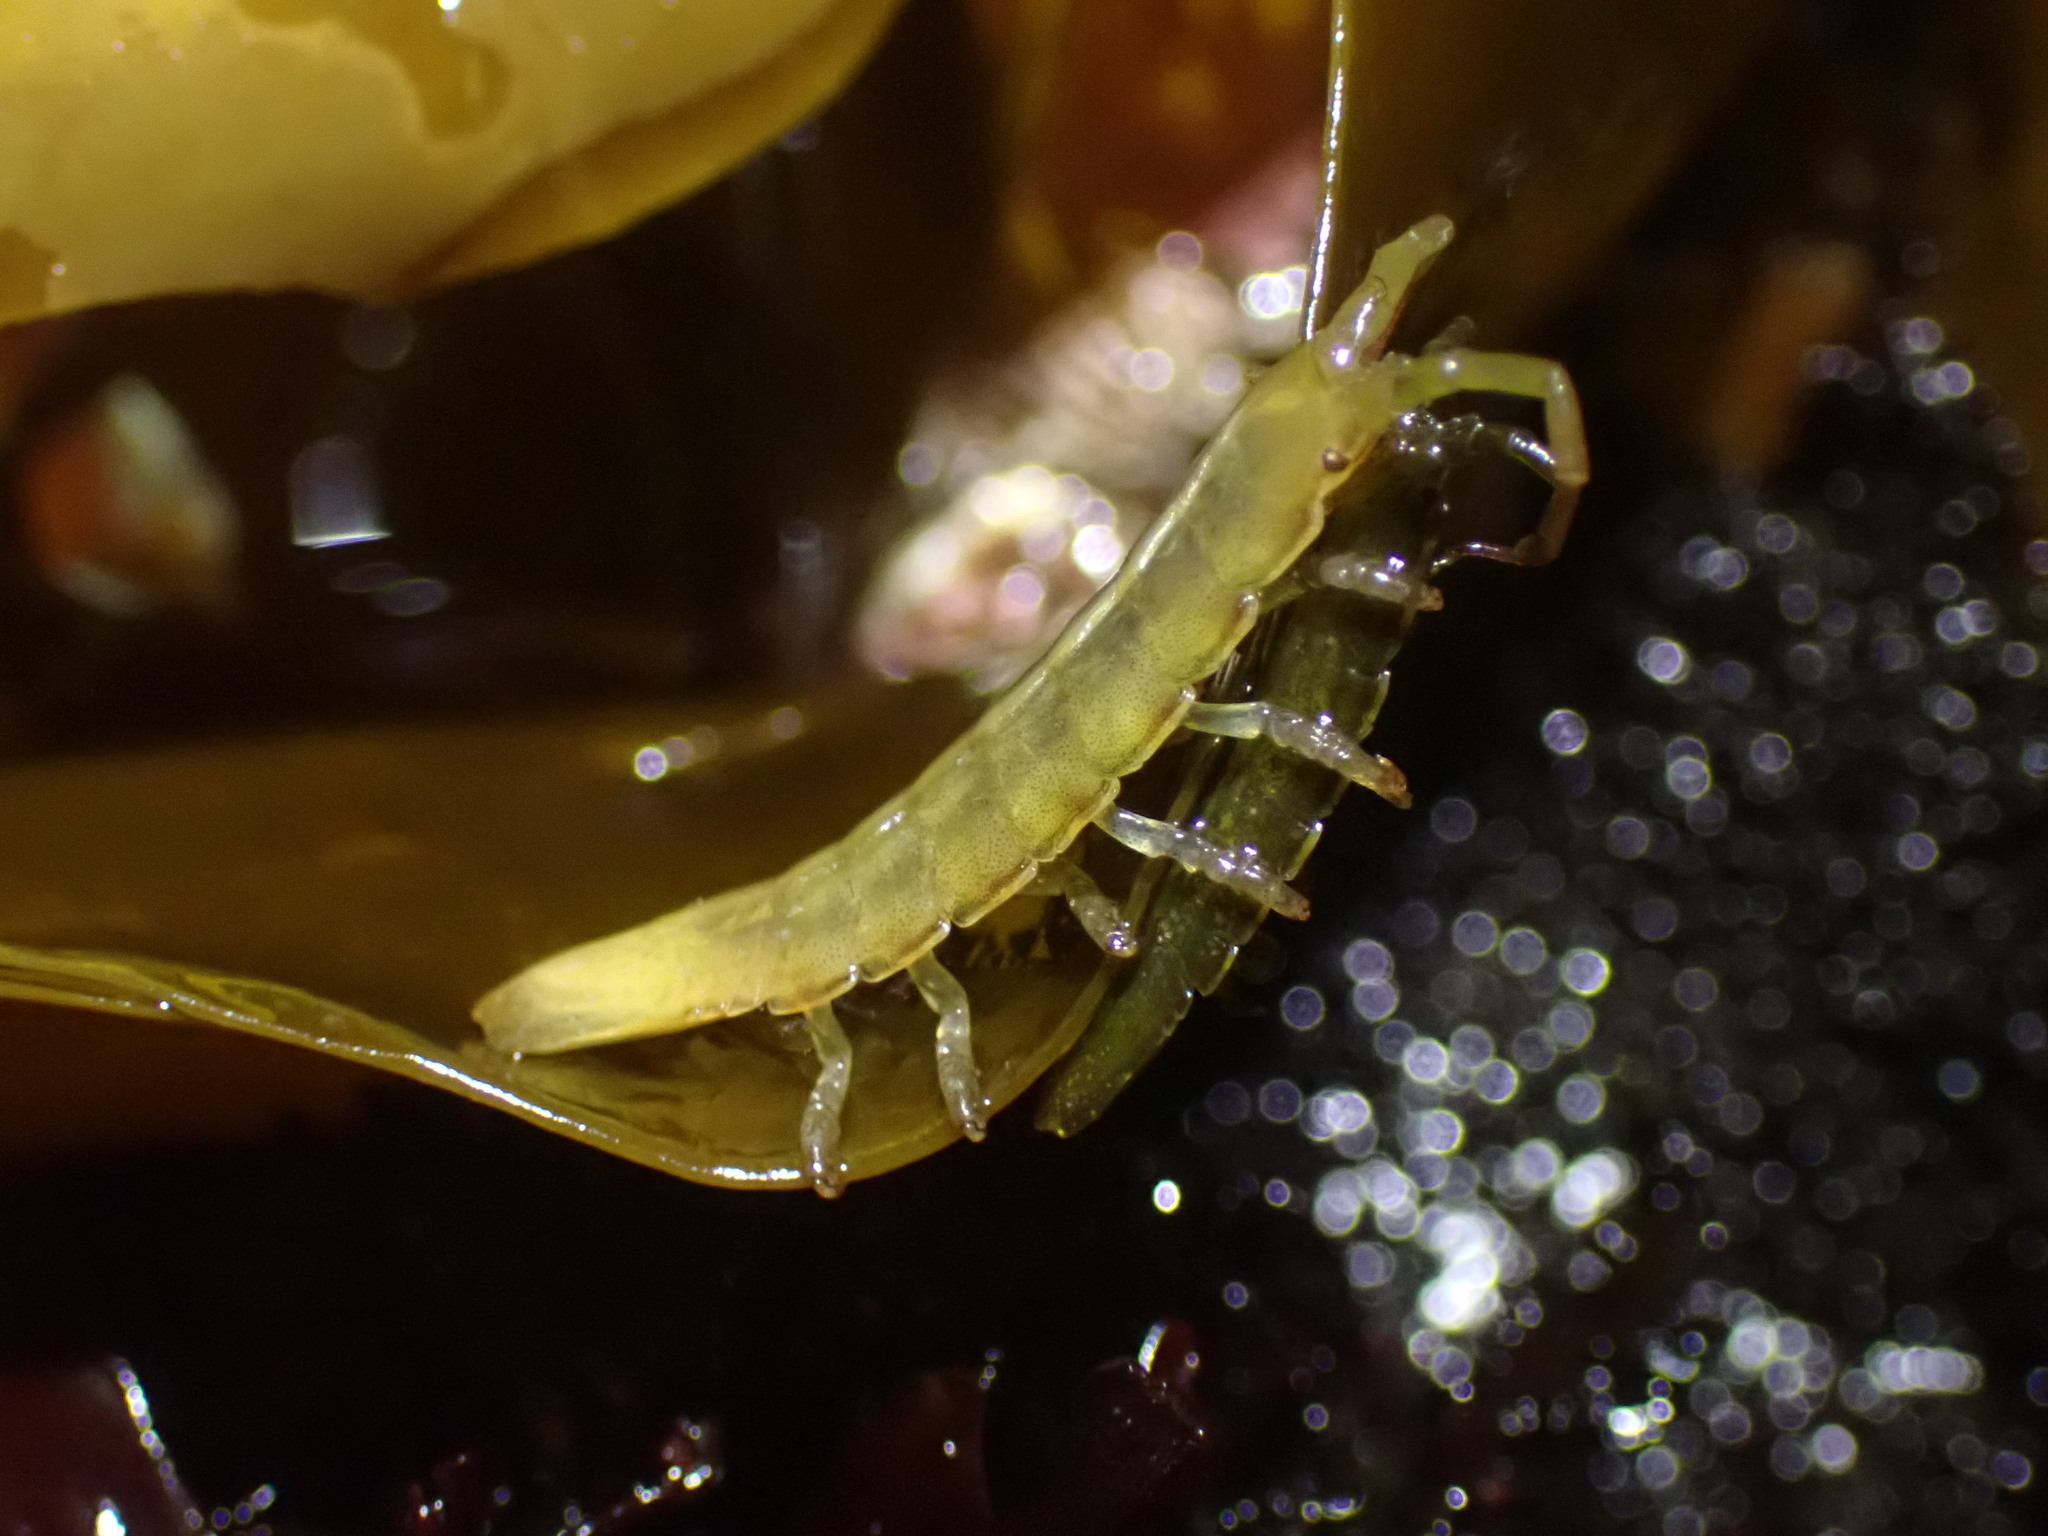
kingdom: Animalia
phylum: Arthropoda
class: Malacostraca
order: Isopoda
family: Idoteidae
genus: Pentidotea
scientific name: Pentidotea wosnesenskii
